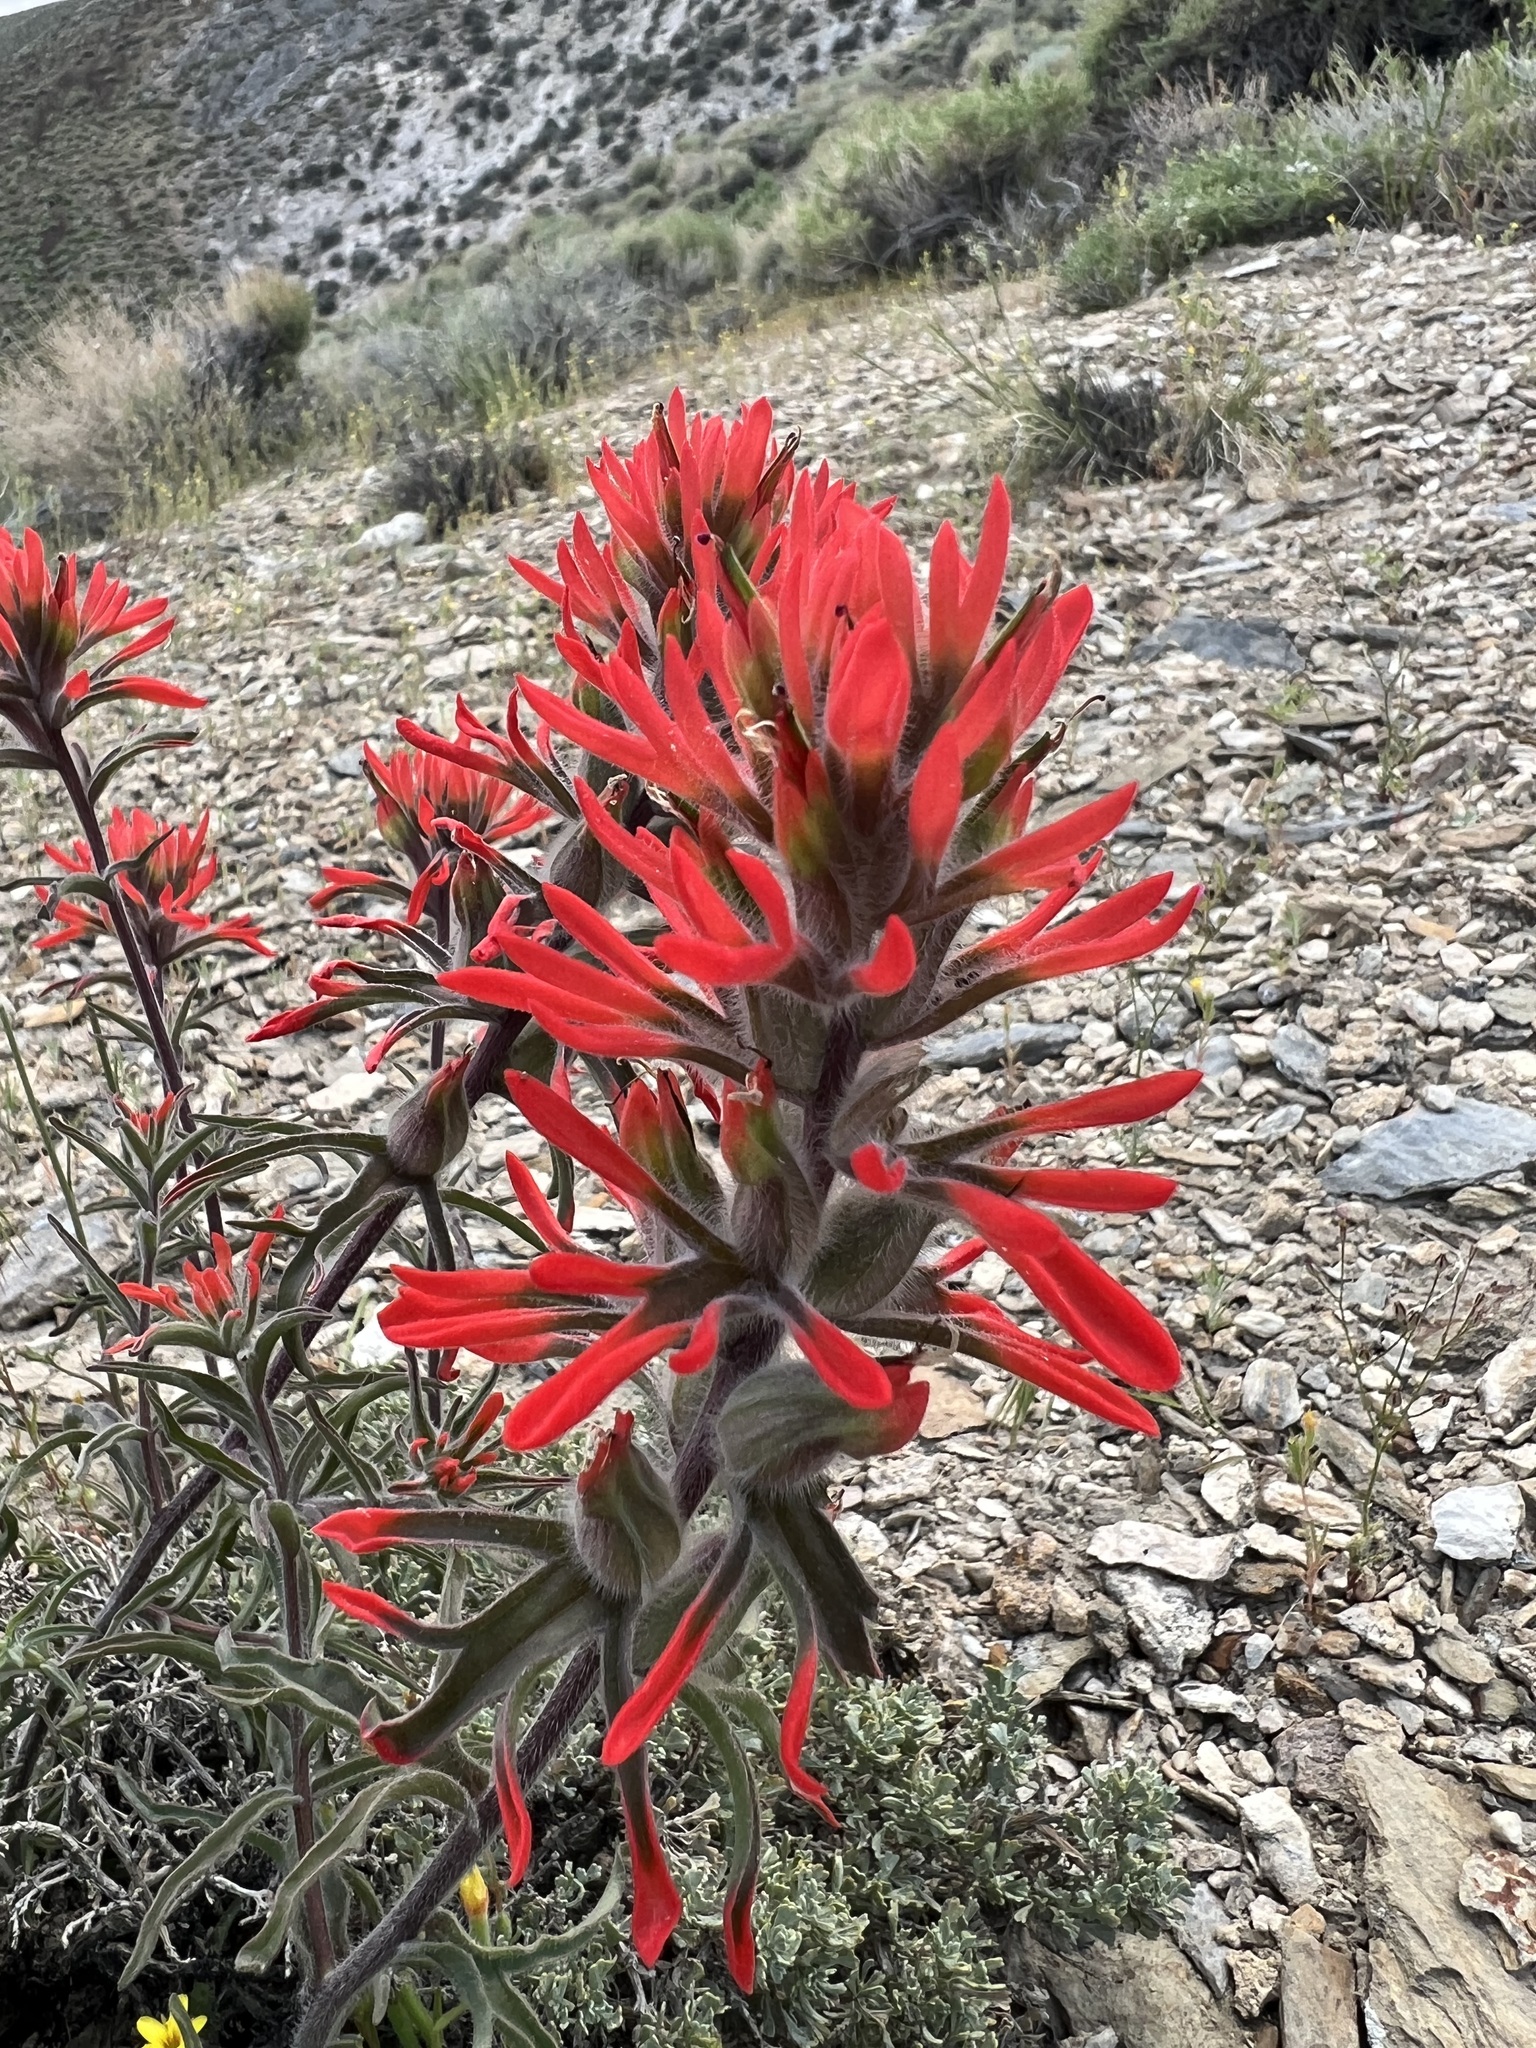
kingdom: Plantae
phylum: Tracheophyta
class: Magnoliopsida
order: Lamiales
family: Orobanchaceae
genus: Castilleja
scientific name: Castilleja chromosa
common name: Desert paintbrush
